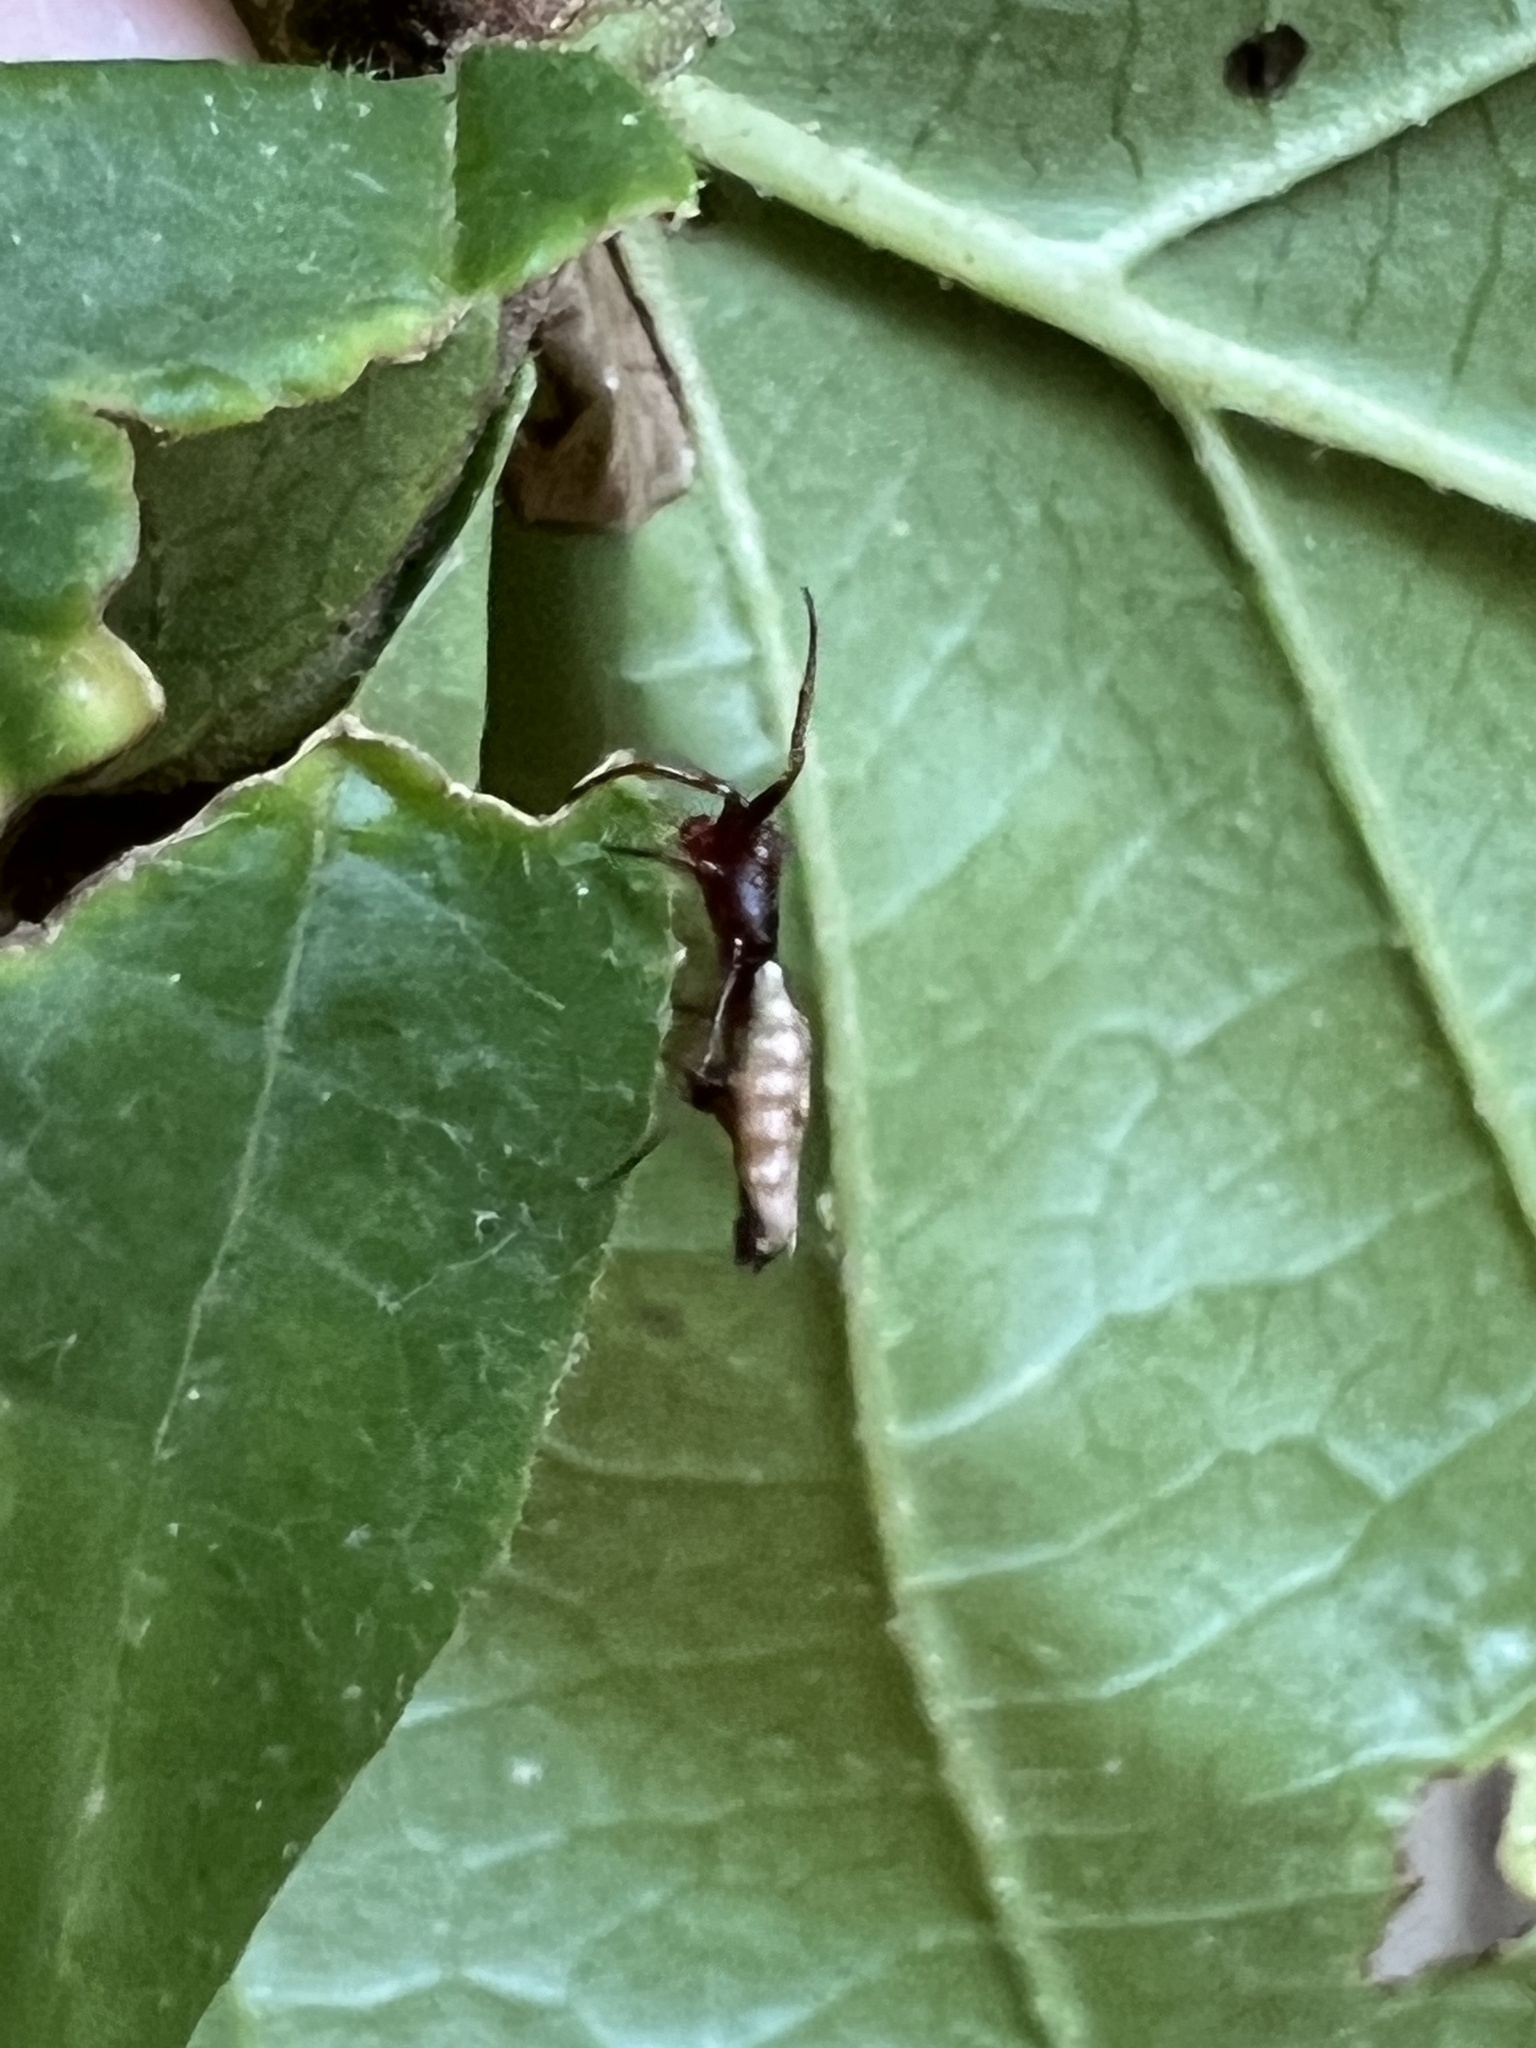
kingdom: Animalia
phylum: Arthropoda
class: Arachnida
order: Araneae
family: Araneidae
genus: Micrathena
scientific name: Micrathena gracilis
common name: Orb weavers
